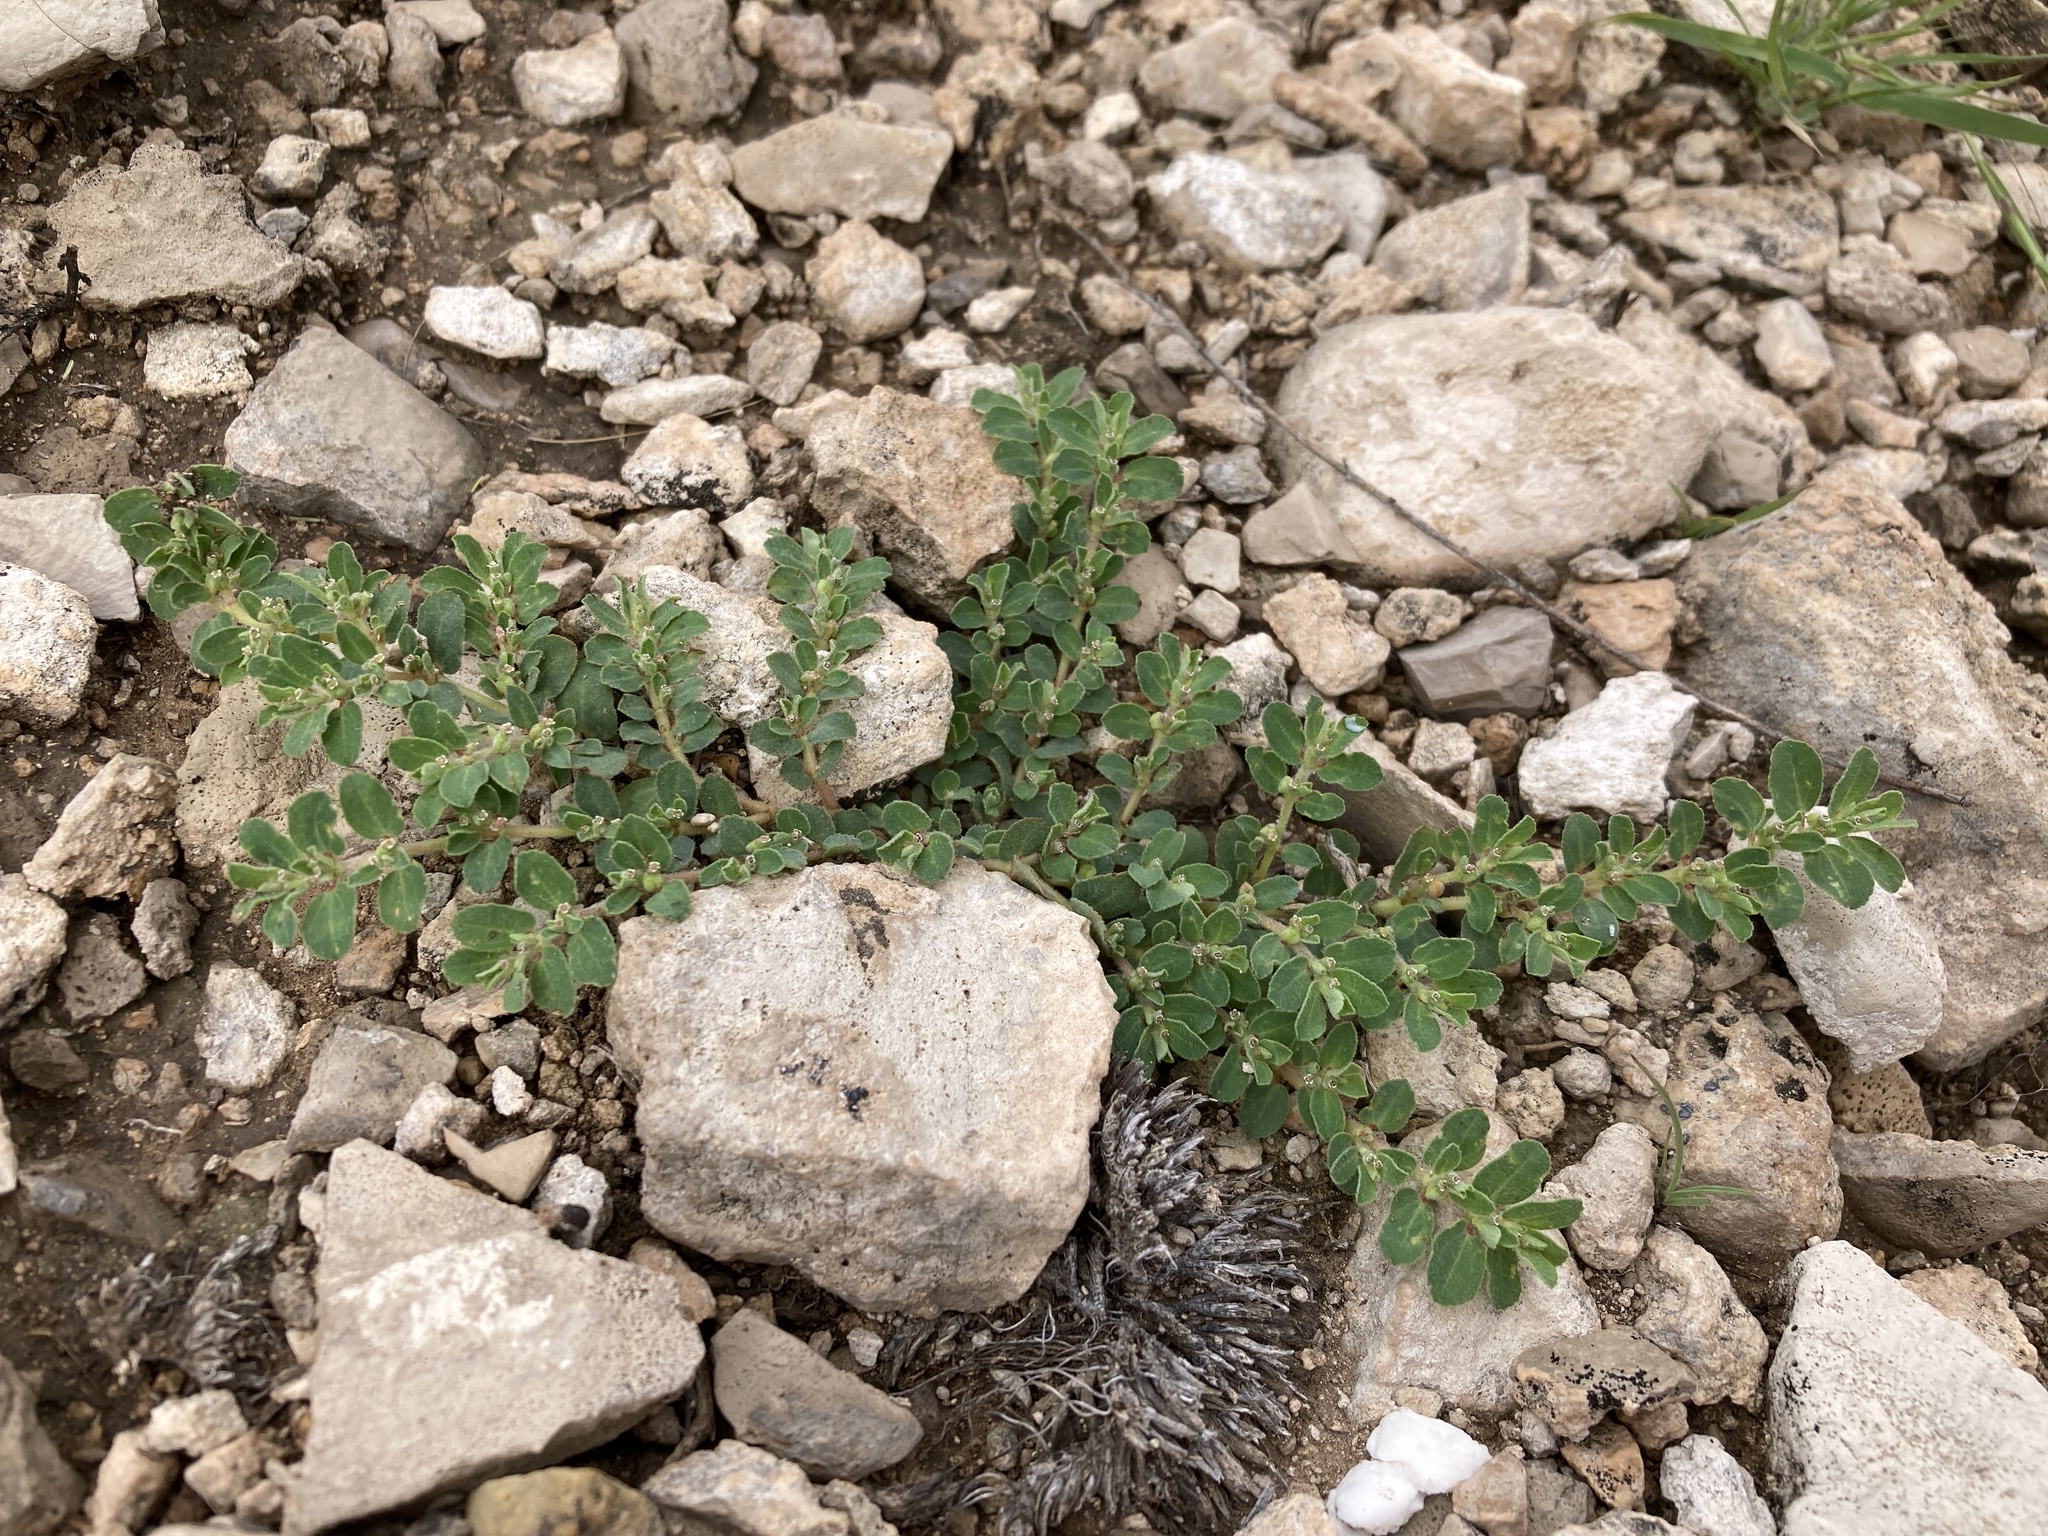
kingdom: Plantae
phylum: Tracheophyta
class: Magnoliopsida
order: Malpighiales
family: Euphorbiaceae
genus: Euphorbia
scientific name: Euphorbia stictospora
